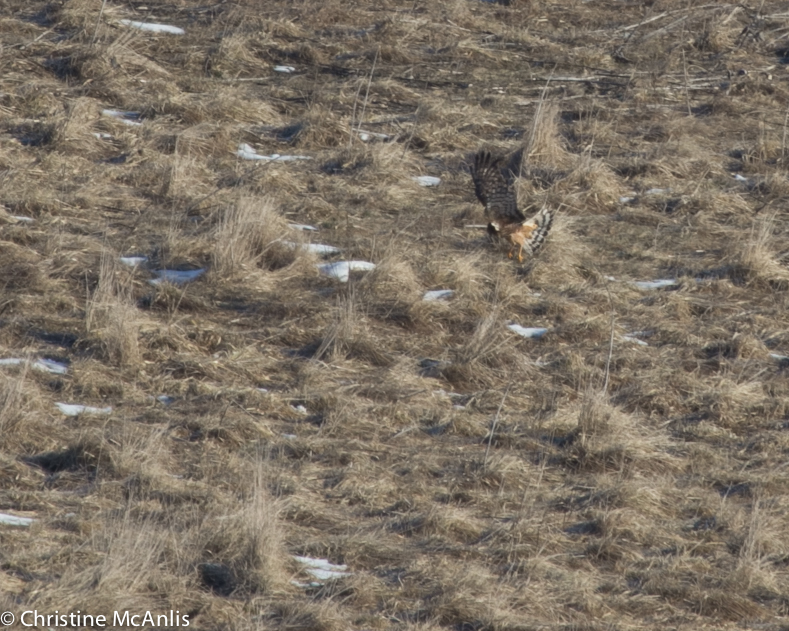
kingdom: Animalia
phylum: Chordata
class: Aves
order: Accipitriformes
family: Accipitridae
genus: Circus
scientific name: Circus cyaneus
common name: Hen harrier
